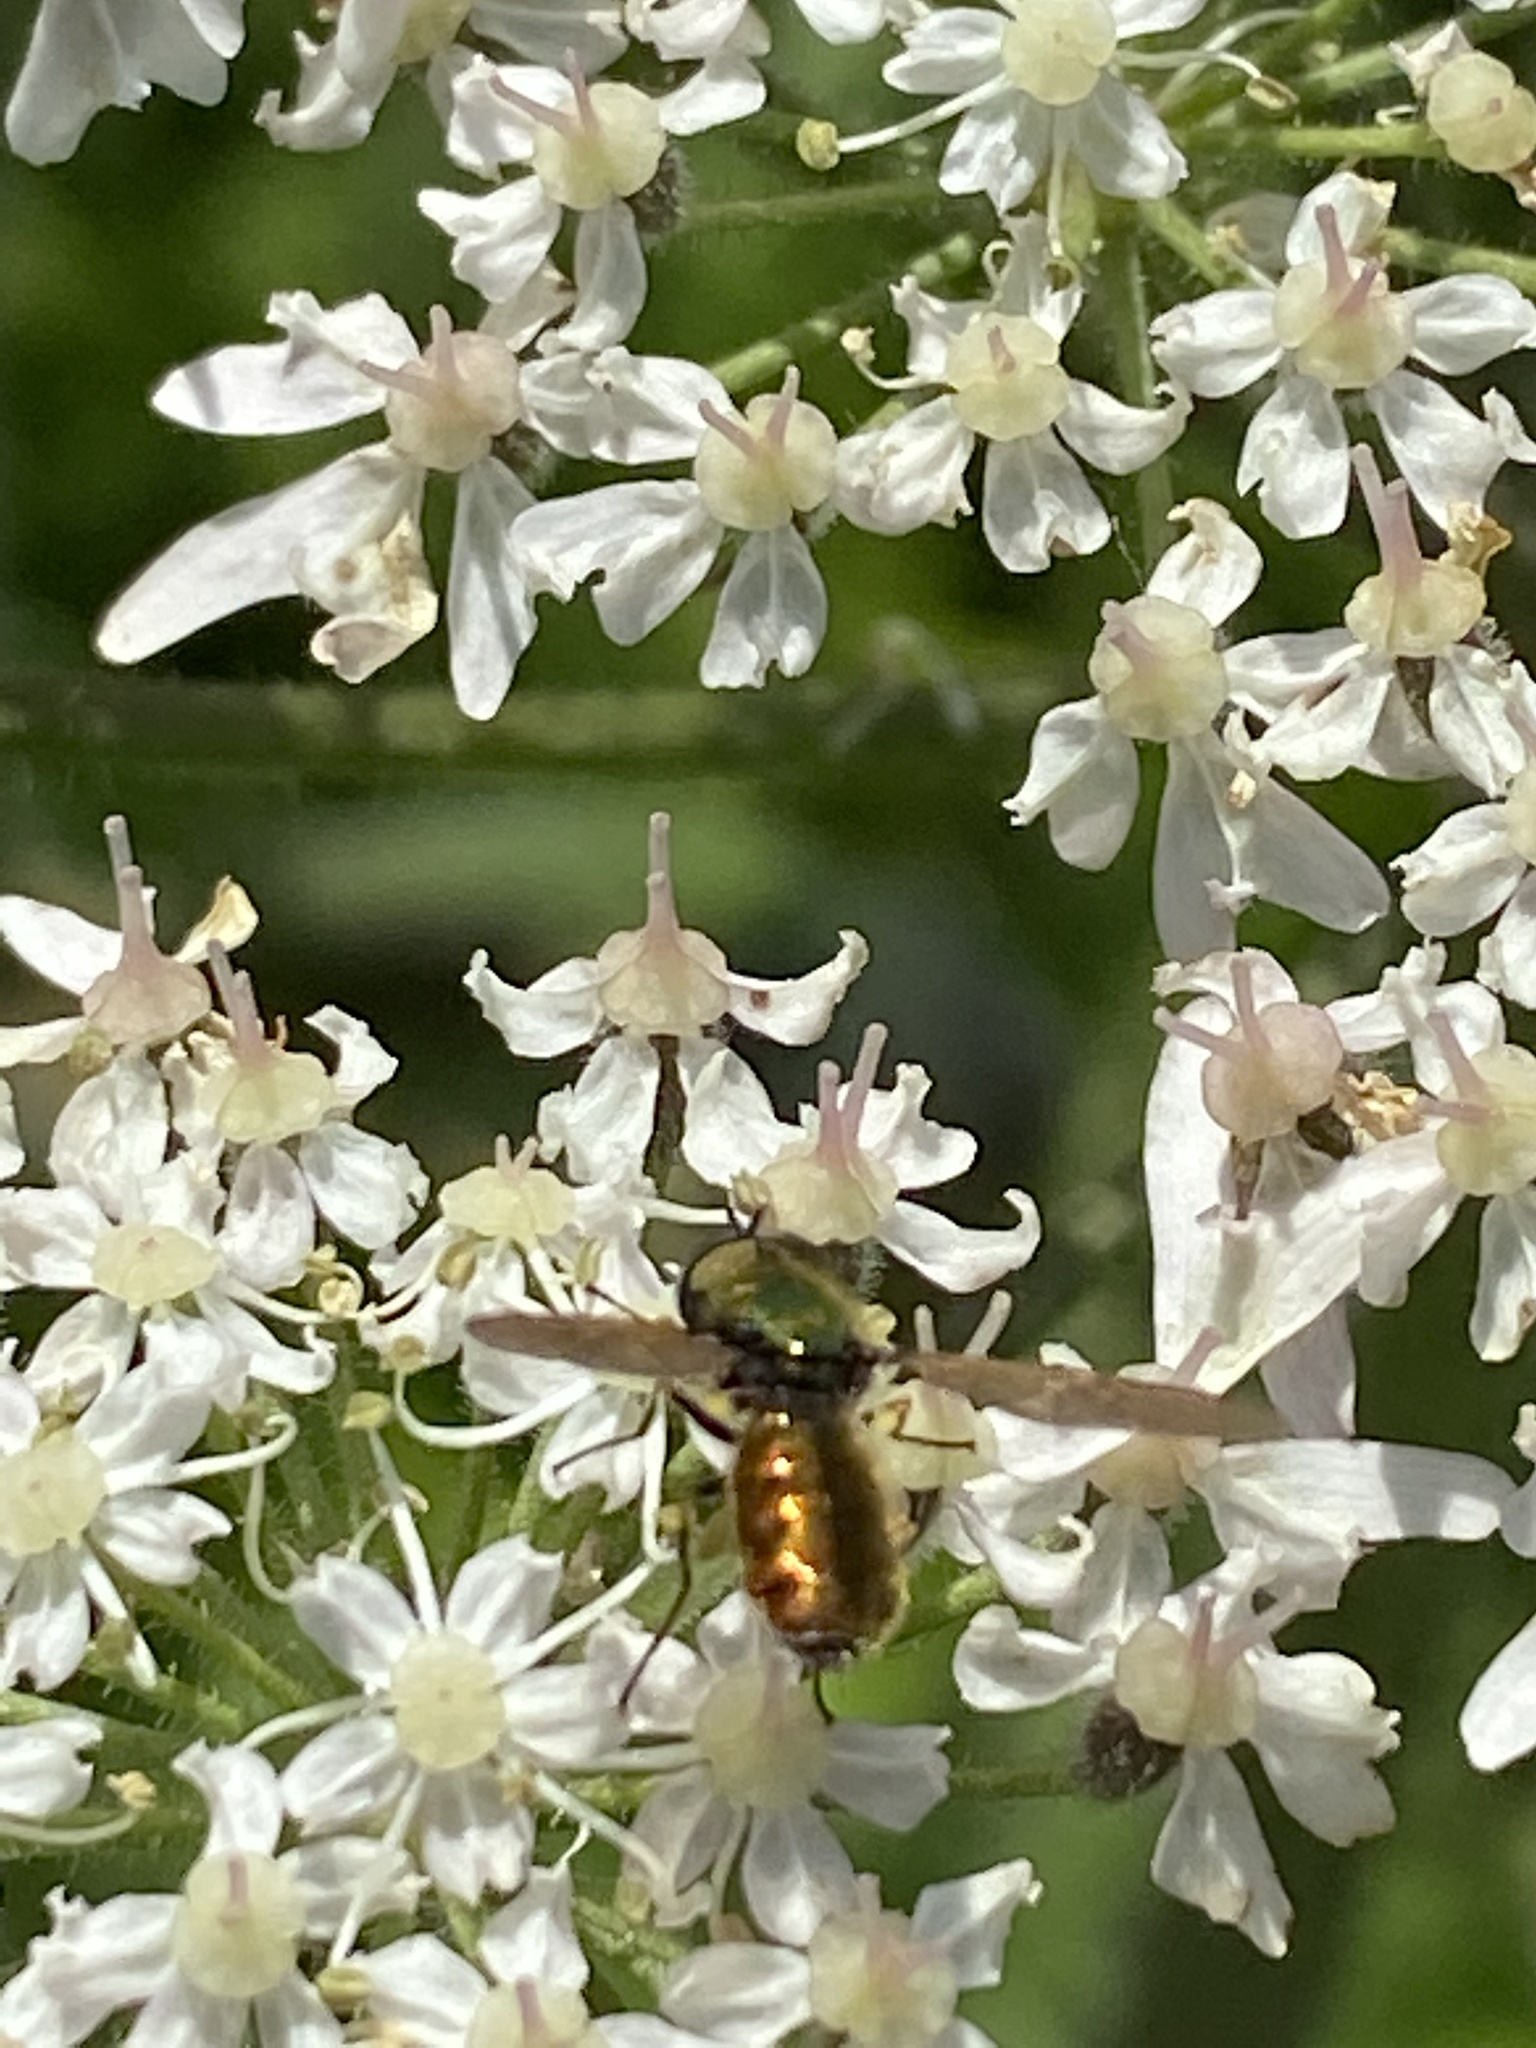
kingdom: Animalia
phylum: Arthropoda
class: Insecta
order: Diptera
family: Stratiomyidae
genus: Chloromyia
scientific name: Chloromyia formosa
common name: Soldier fly
